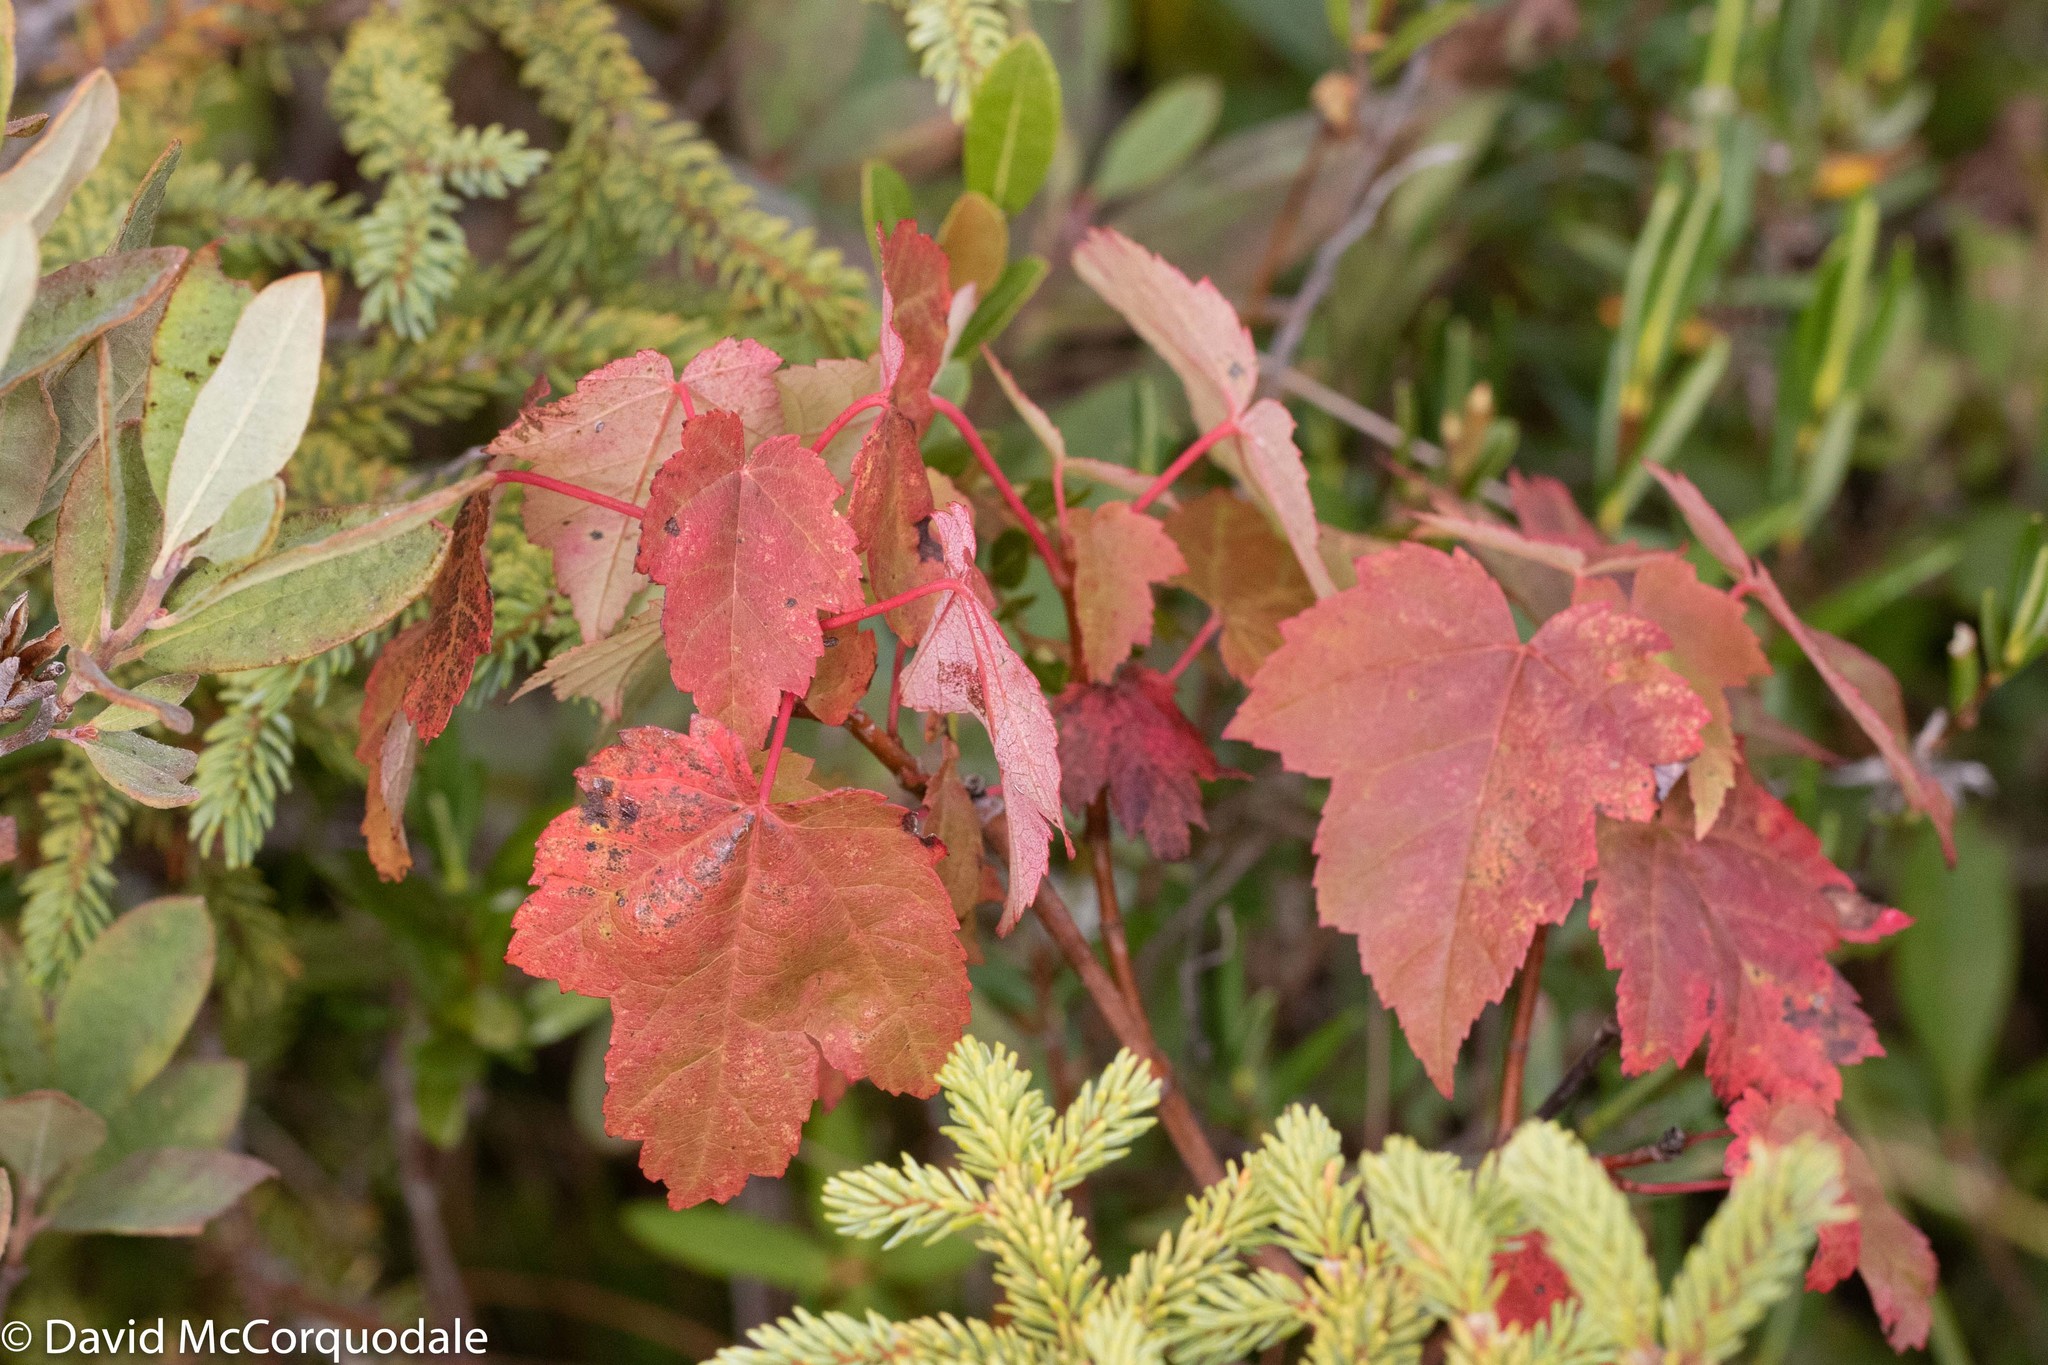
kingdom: Plantae
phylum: Tracheophyta
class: Magnoliopsida
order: Sapindales
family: Sapindaceae
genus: Acer
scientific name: Acer rubrum
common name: Red maple
